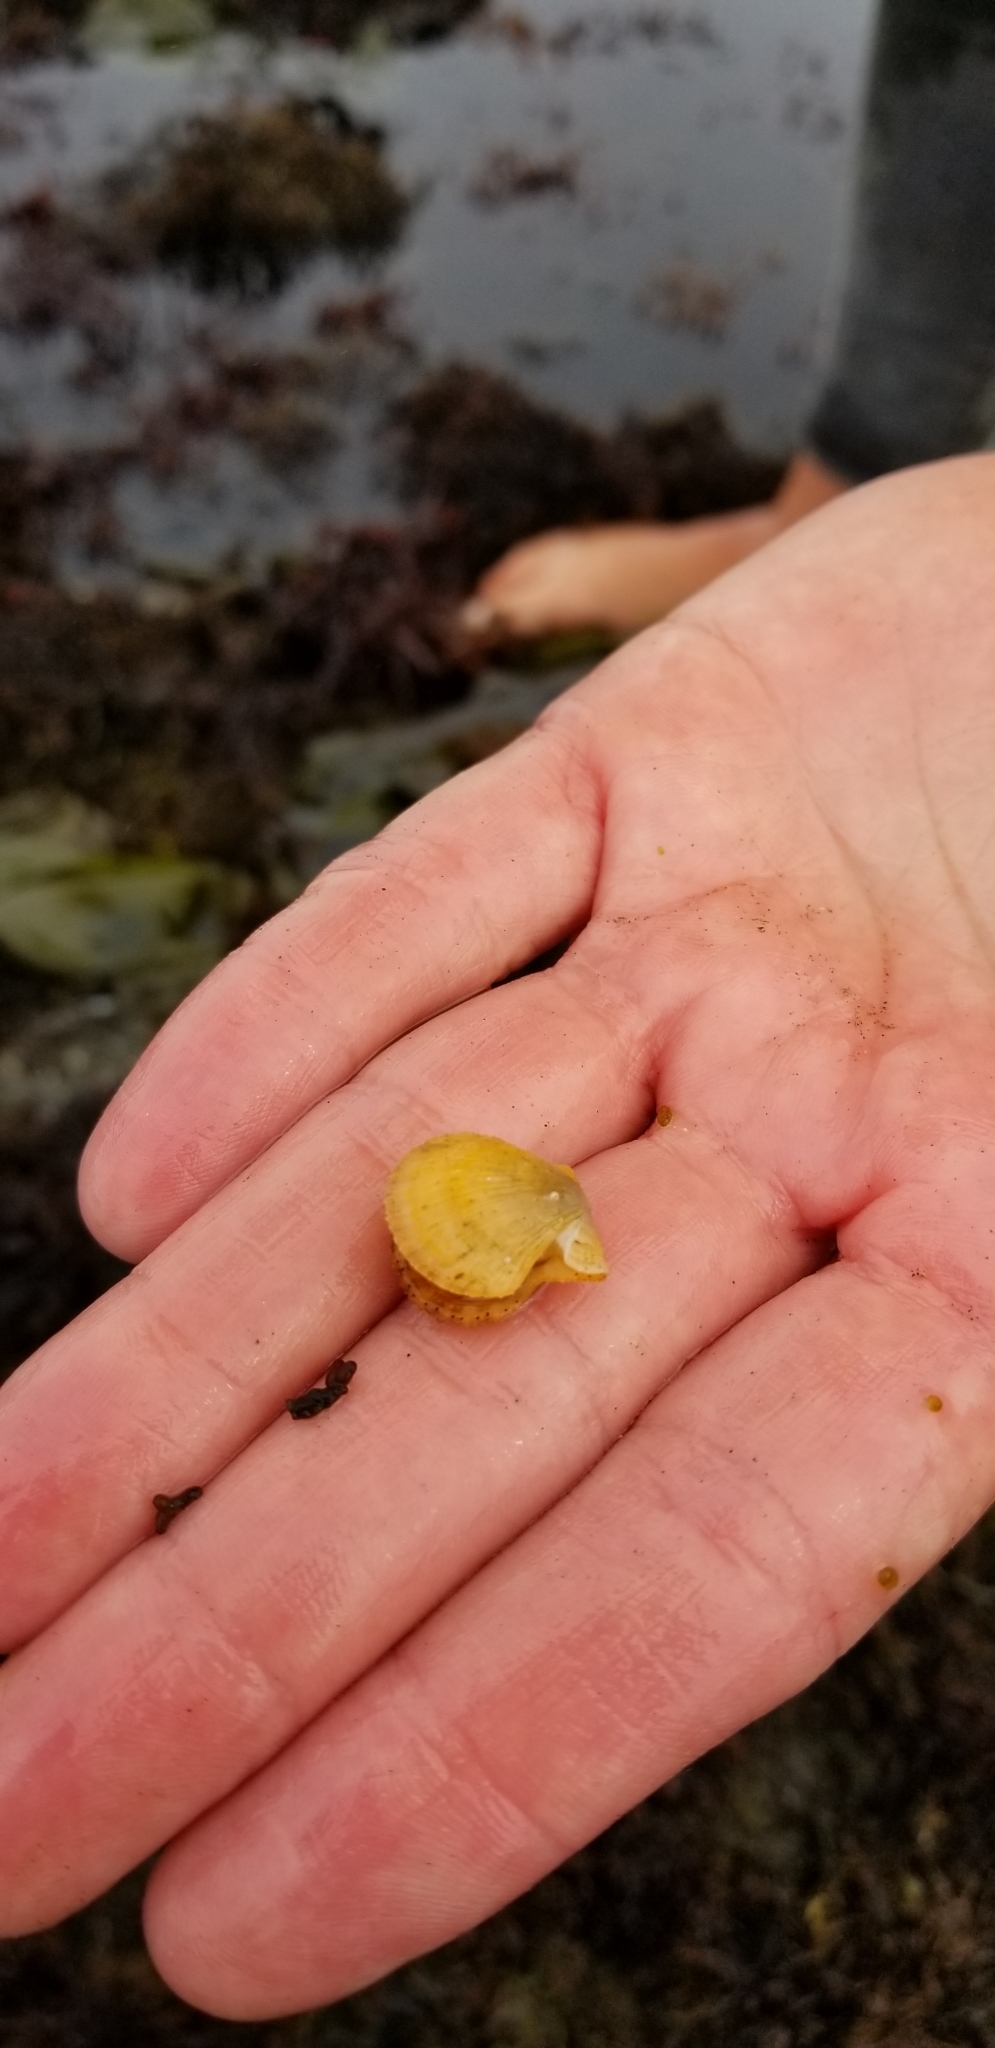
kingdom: Animalia
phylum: Mollusca
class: Bivalvia
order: Pectinida
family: Pectinidae
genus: Crassadoma
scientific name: Crassadoma gigantea
